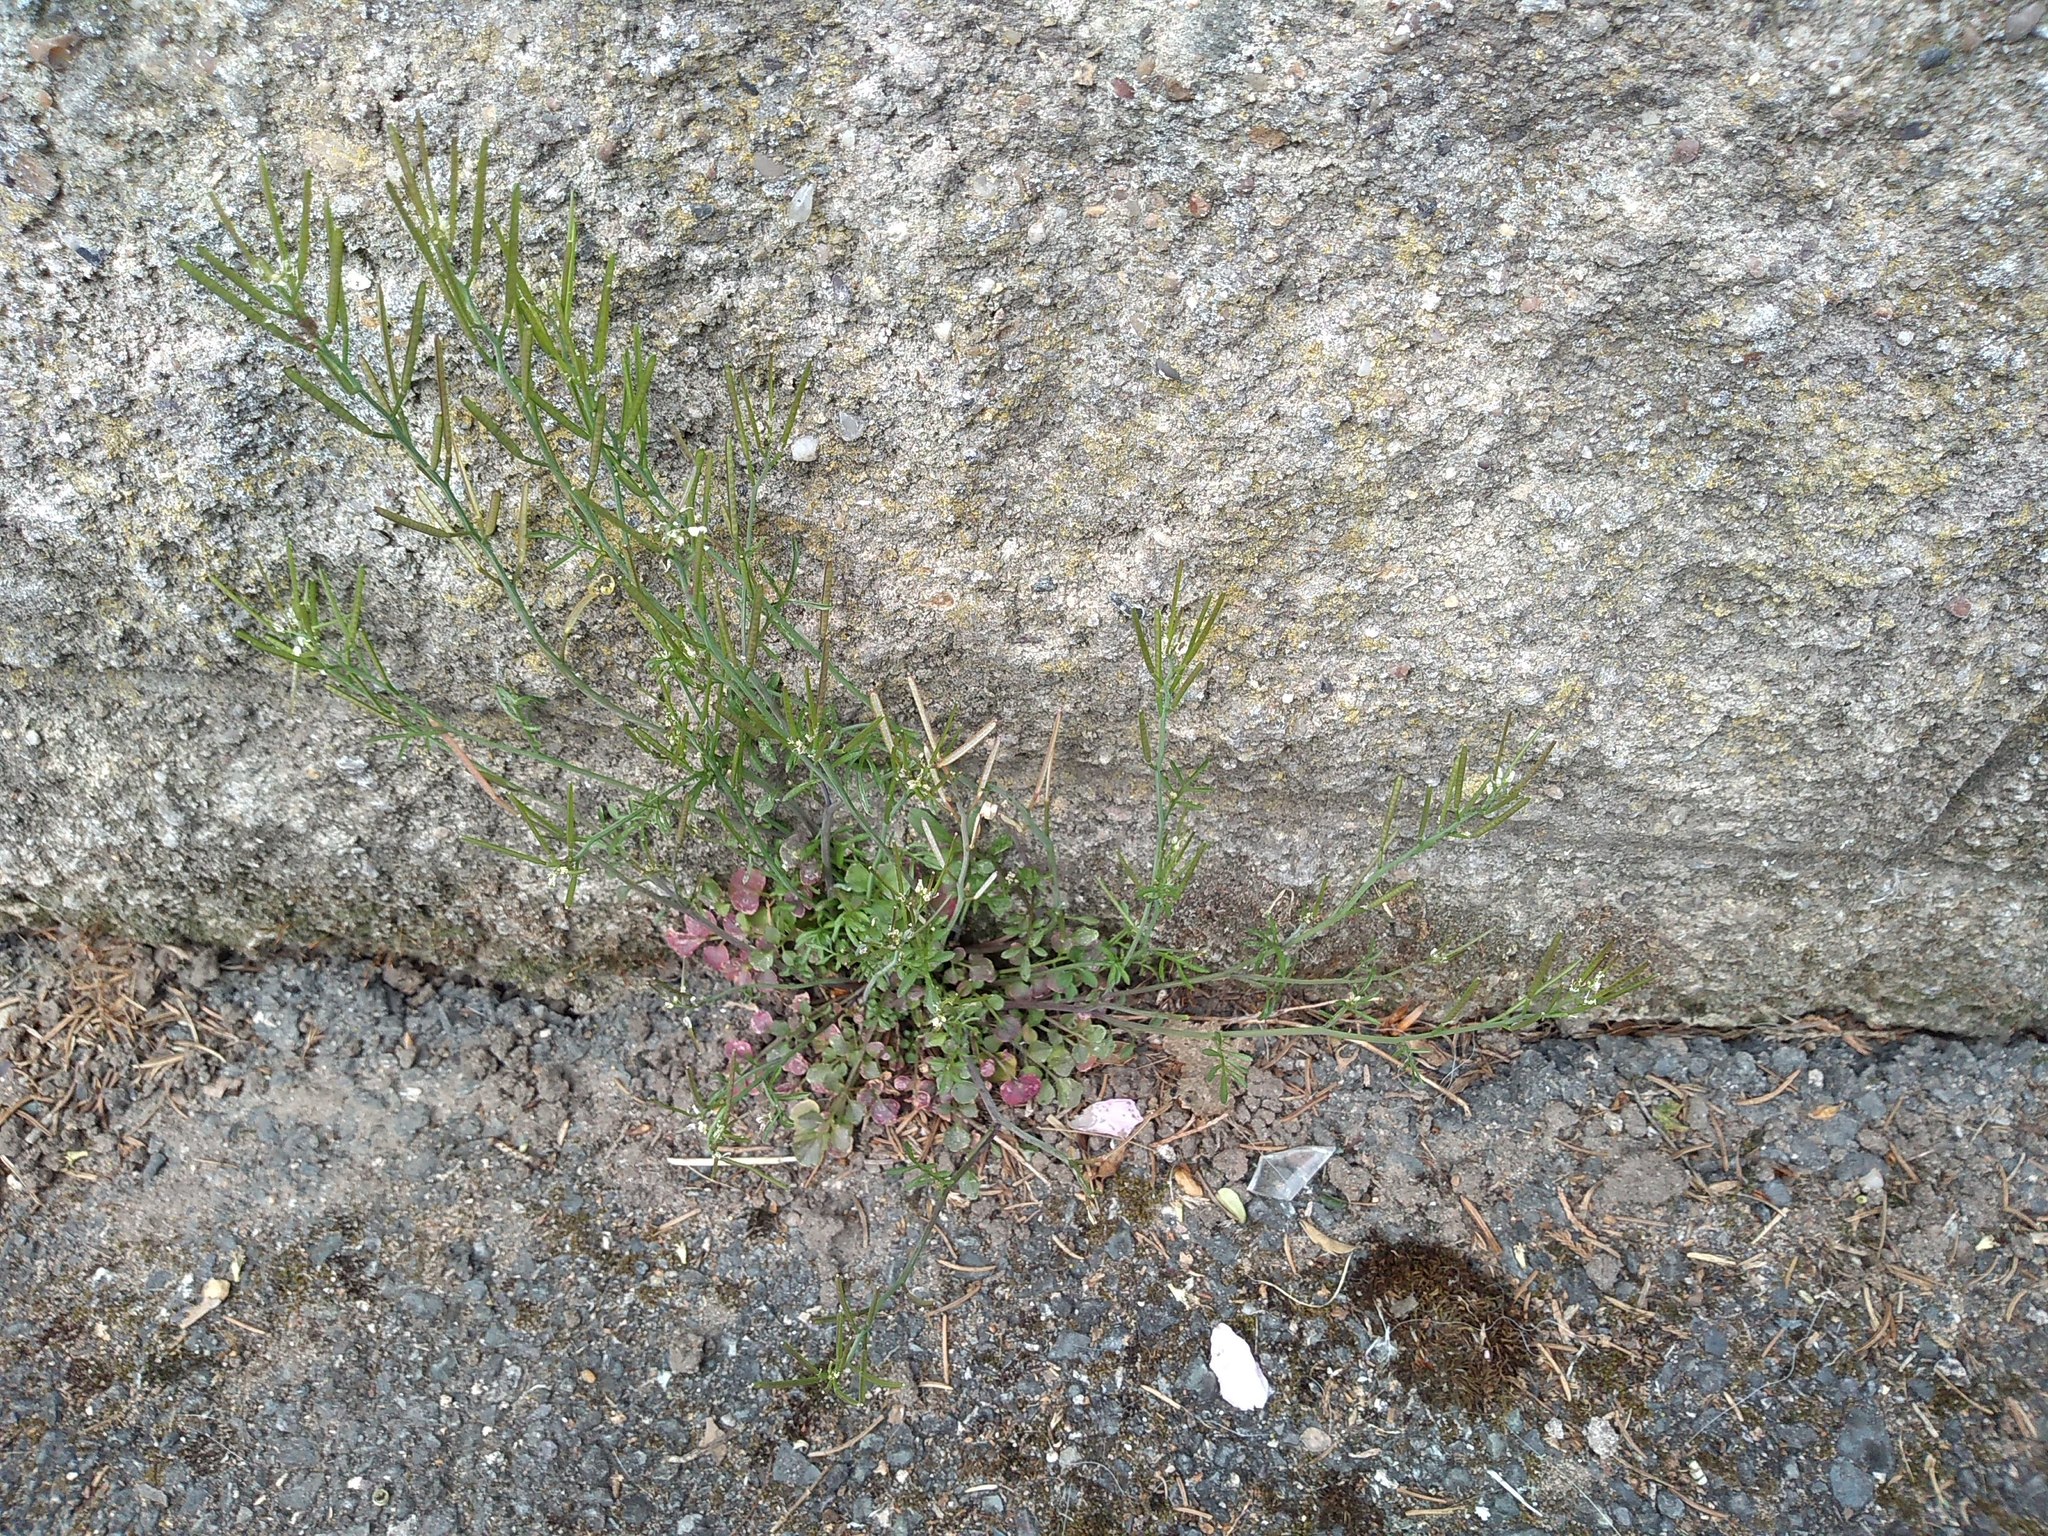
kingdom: Plantae
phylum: Tracheophyta
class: Magnoliopsida
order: Brassicales
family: Brassicaceae
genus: Cardamine
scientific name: Cardamine hirsuta
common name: Hairy bittercress
